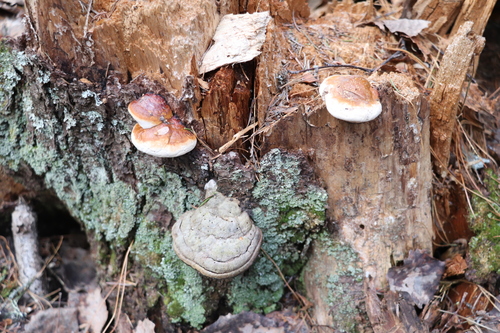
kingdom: Fungi
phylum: Basidiomycota
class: Agaricomycetes
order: Polyporales
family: Fomitopsidaceae
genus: Fomitopsis
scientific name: Fomitopsis pinicola
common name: Red-belted bracket
